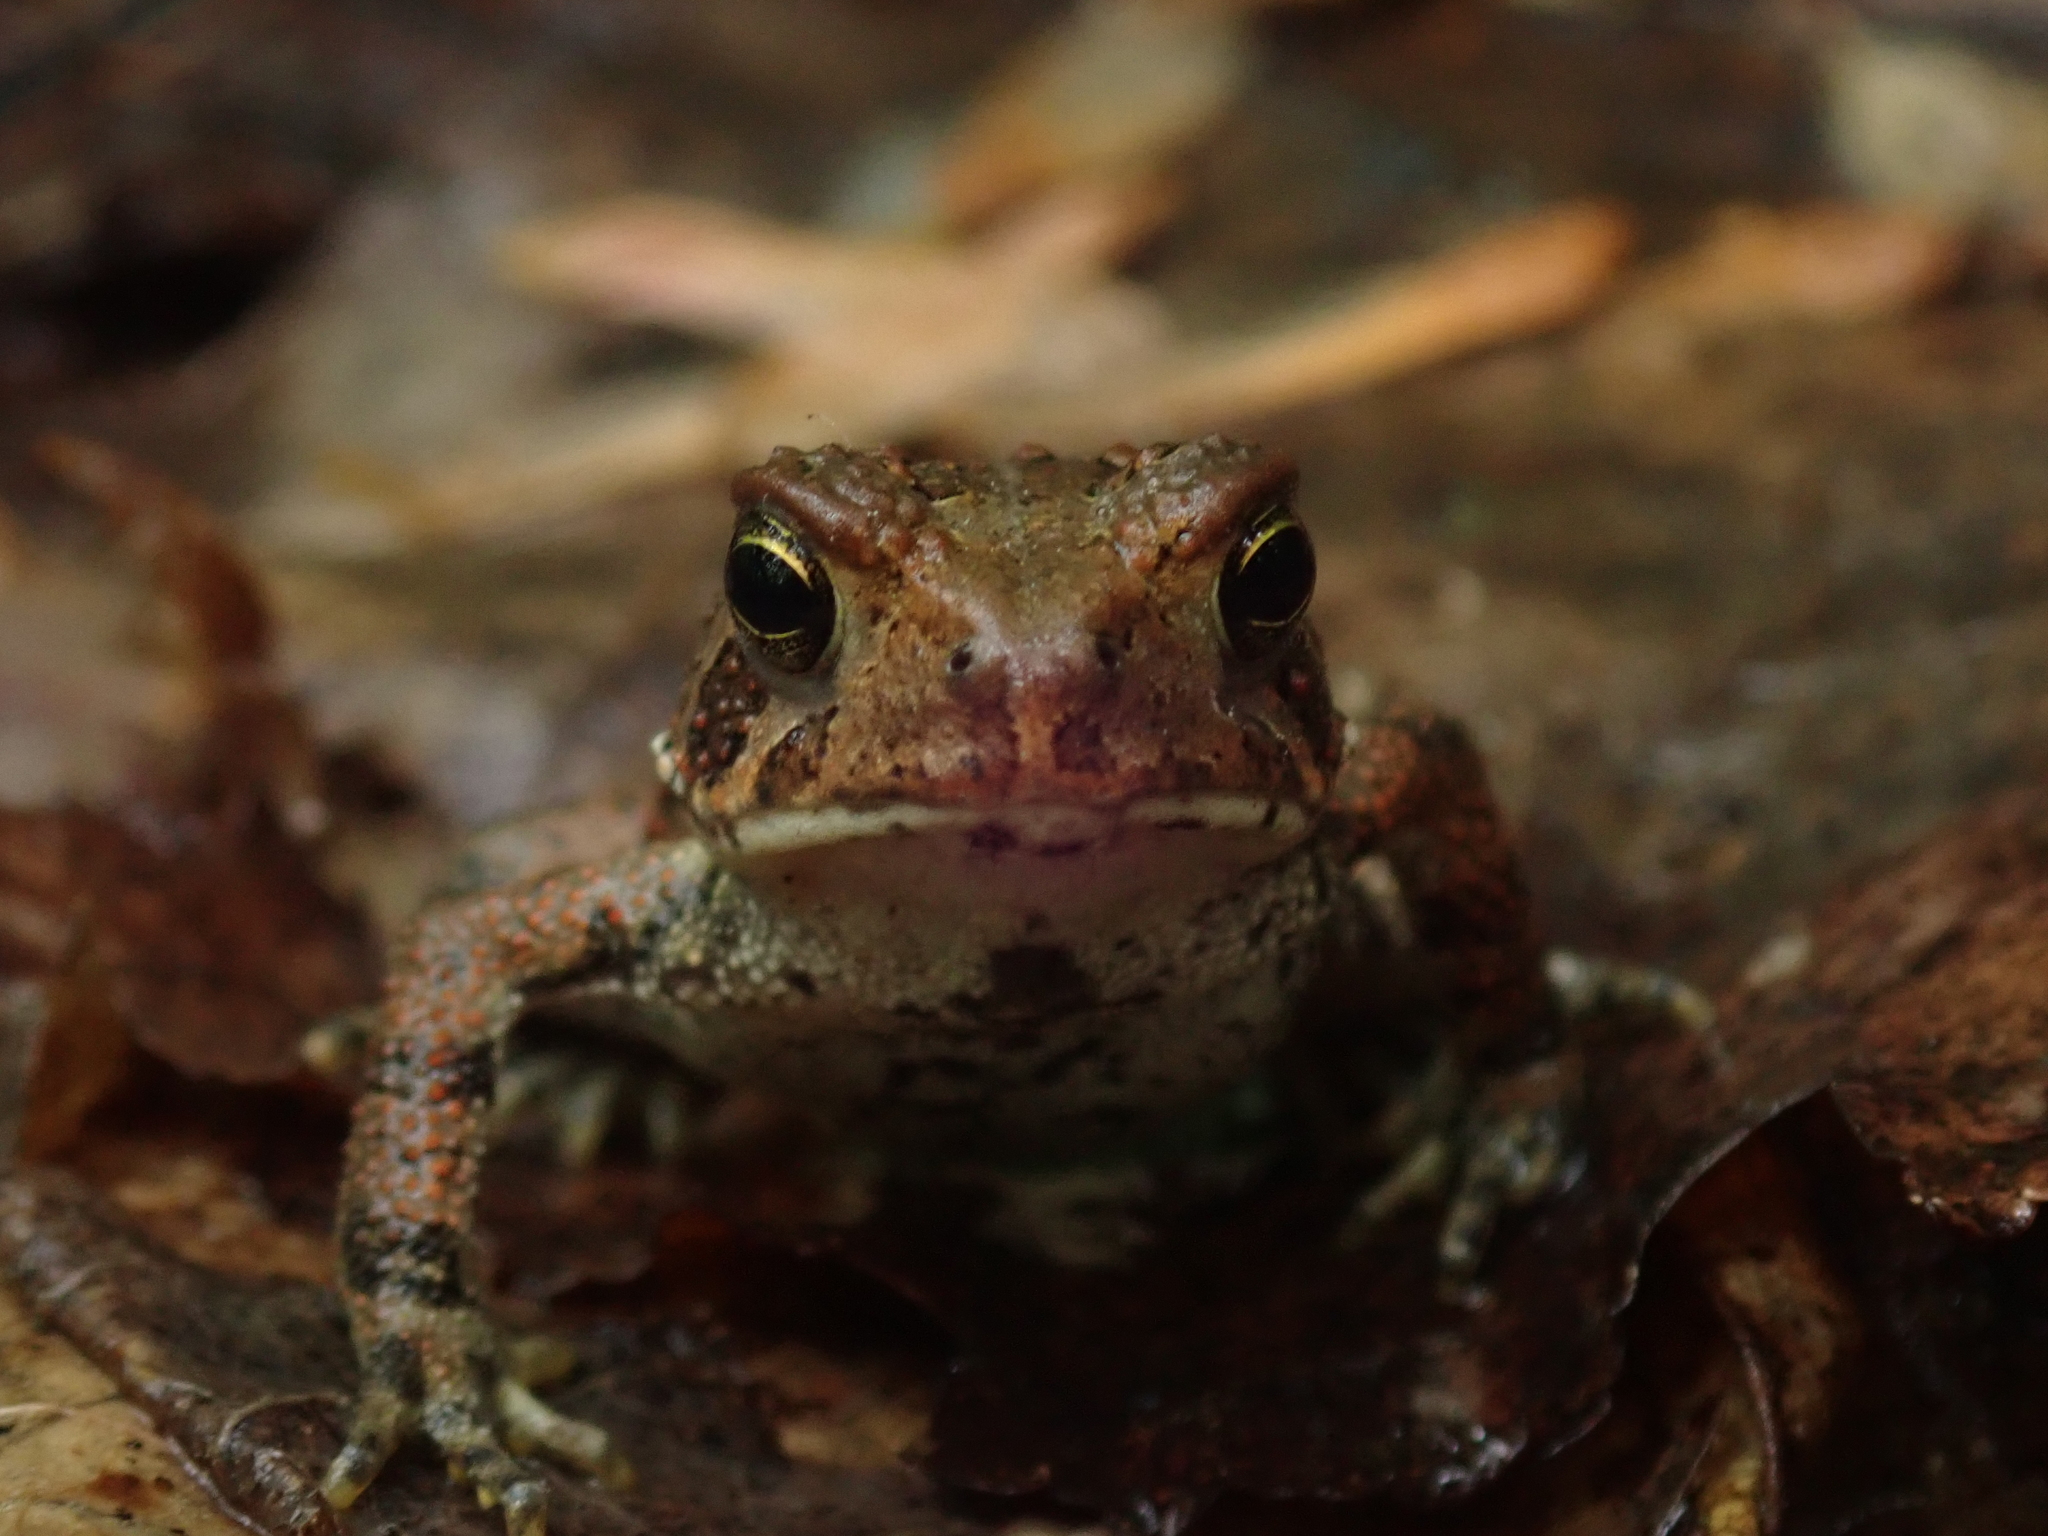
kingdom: Animalia
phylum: Chordata
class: Amphibia
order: Anura
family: Bufonidae
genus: Anaxyrus
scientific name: Anaxyrus americanus
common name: American toad
